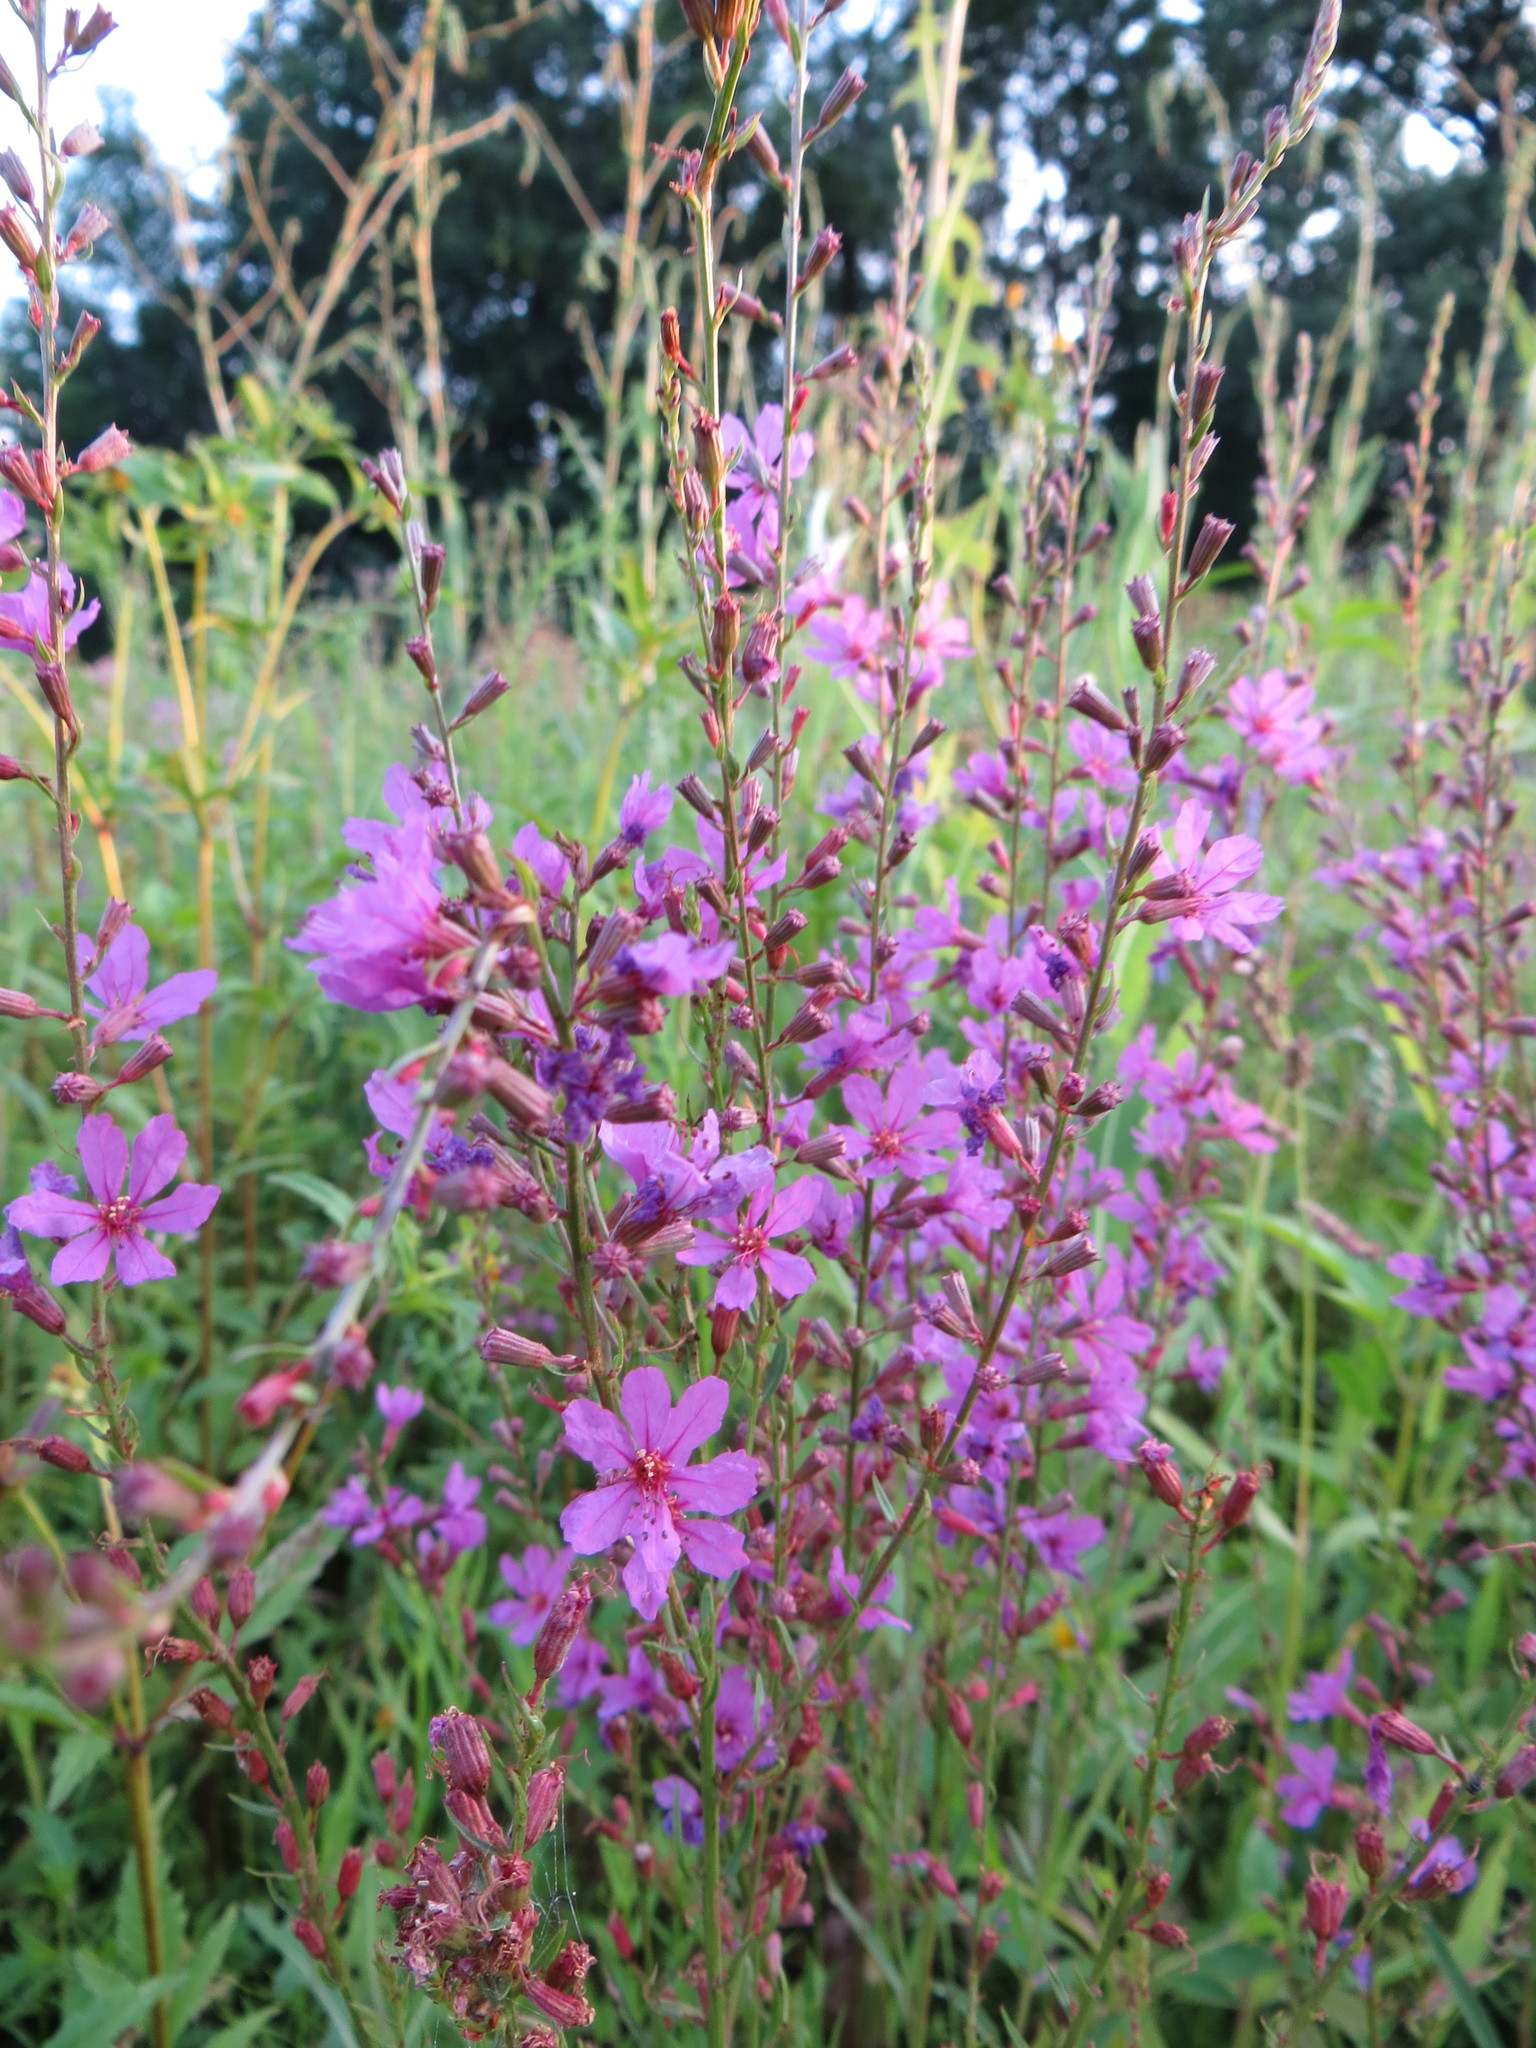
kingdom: Plantae
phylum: Tracheophyta
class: Magnoliopsida
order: Myrtales
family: Lythraceae
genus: Lythrum
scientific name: Lythrum virgatum
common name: European wand loosestrife
